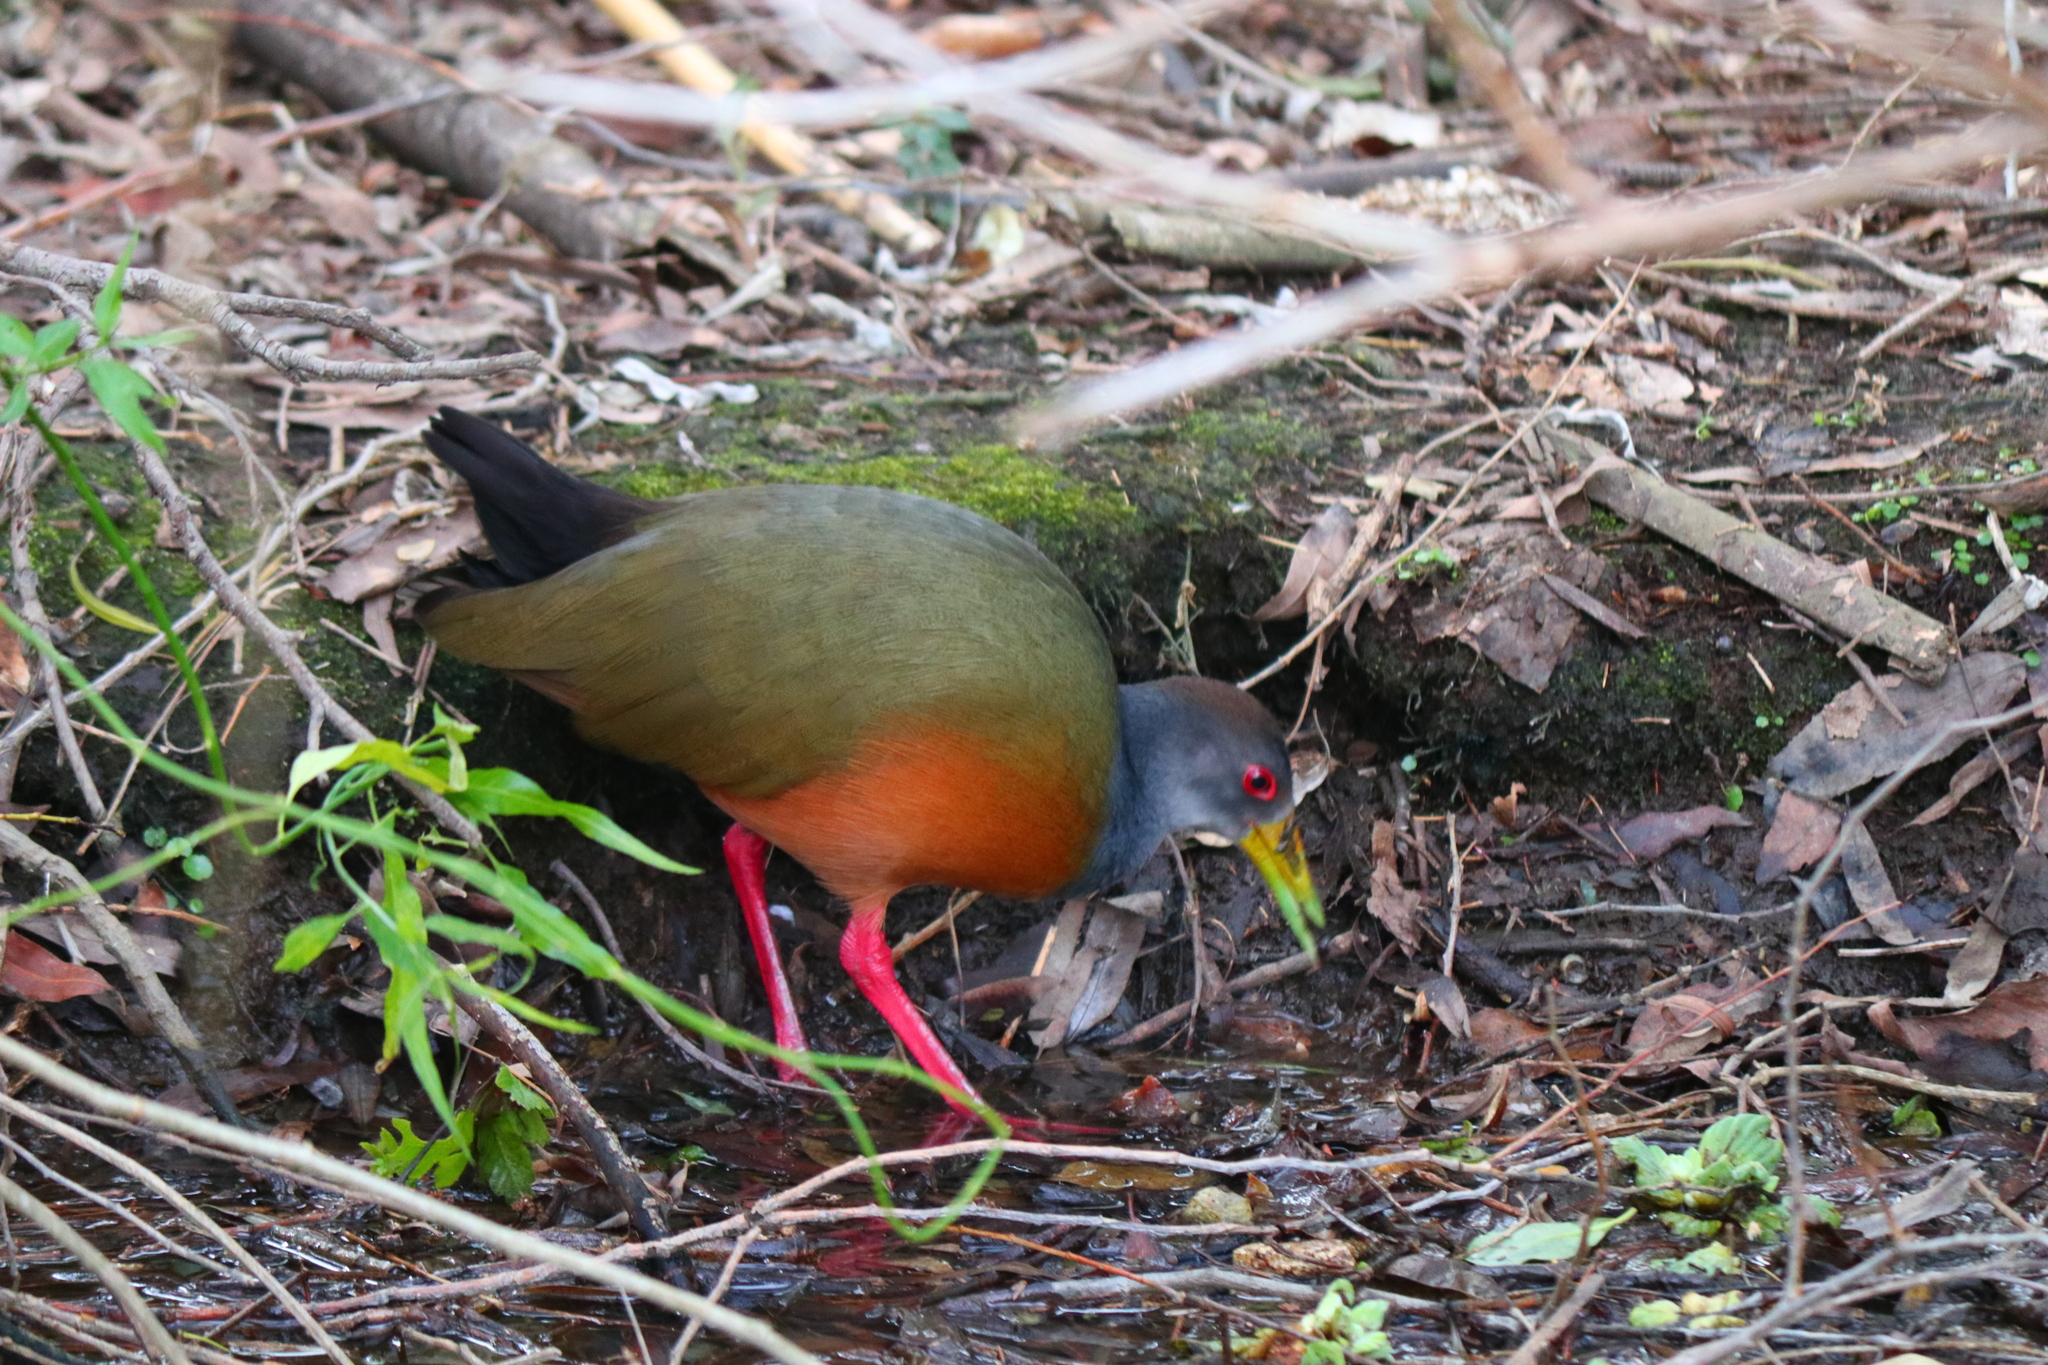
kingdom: Animalia
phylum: Chordata
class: Aves
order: Gruiformes
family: Rallidae
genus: Aramides
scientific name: Aramides cajanea
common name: Gray-necked wood-rail
